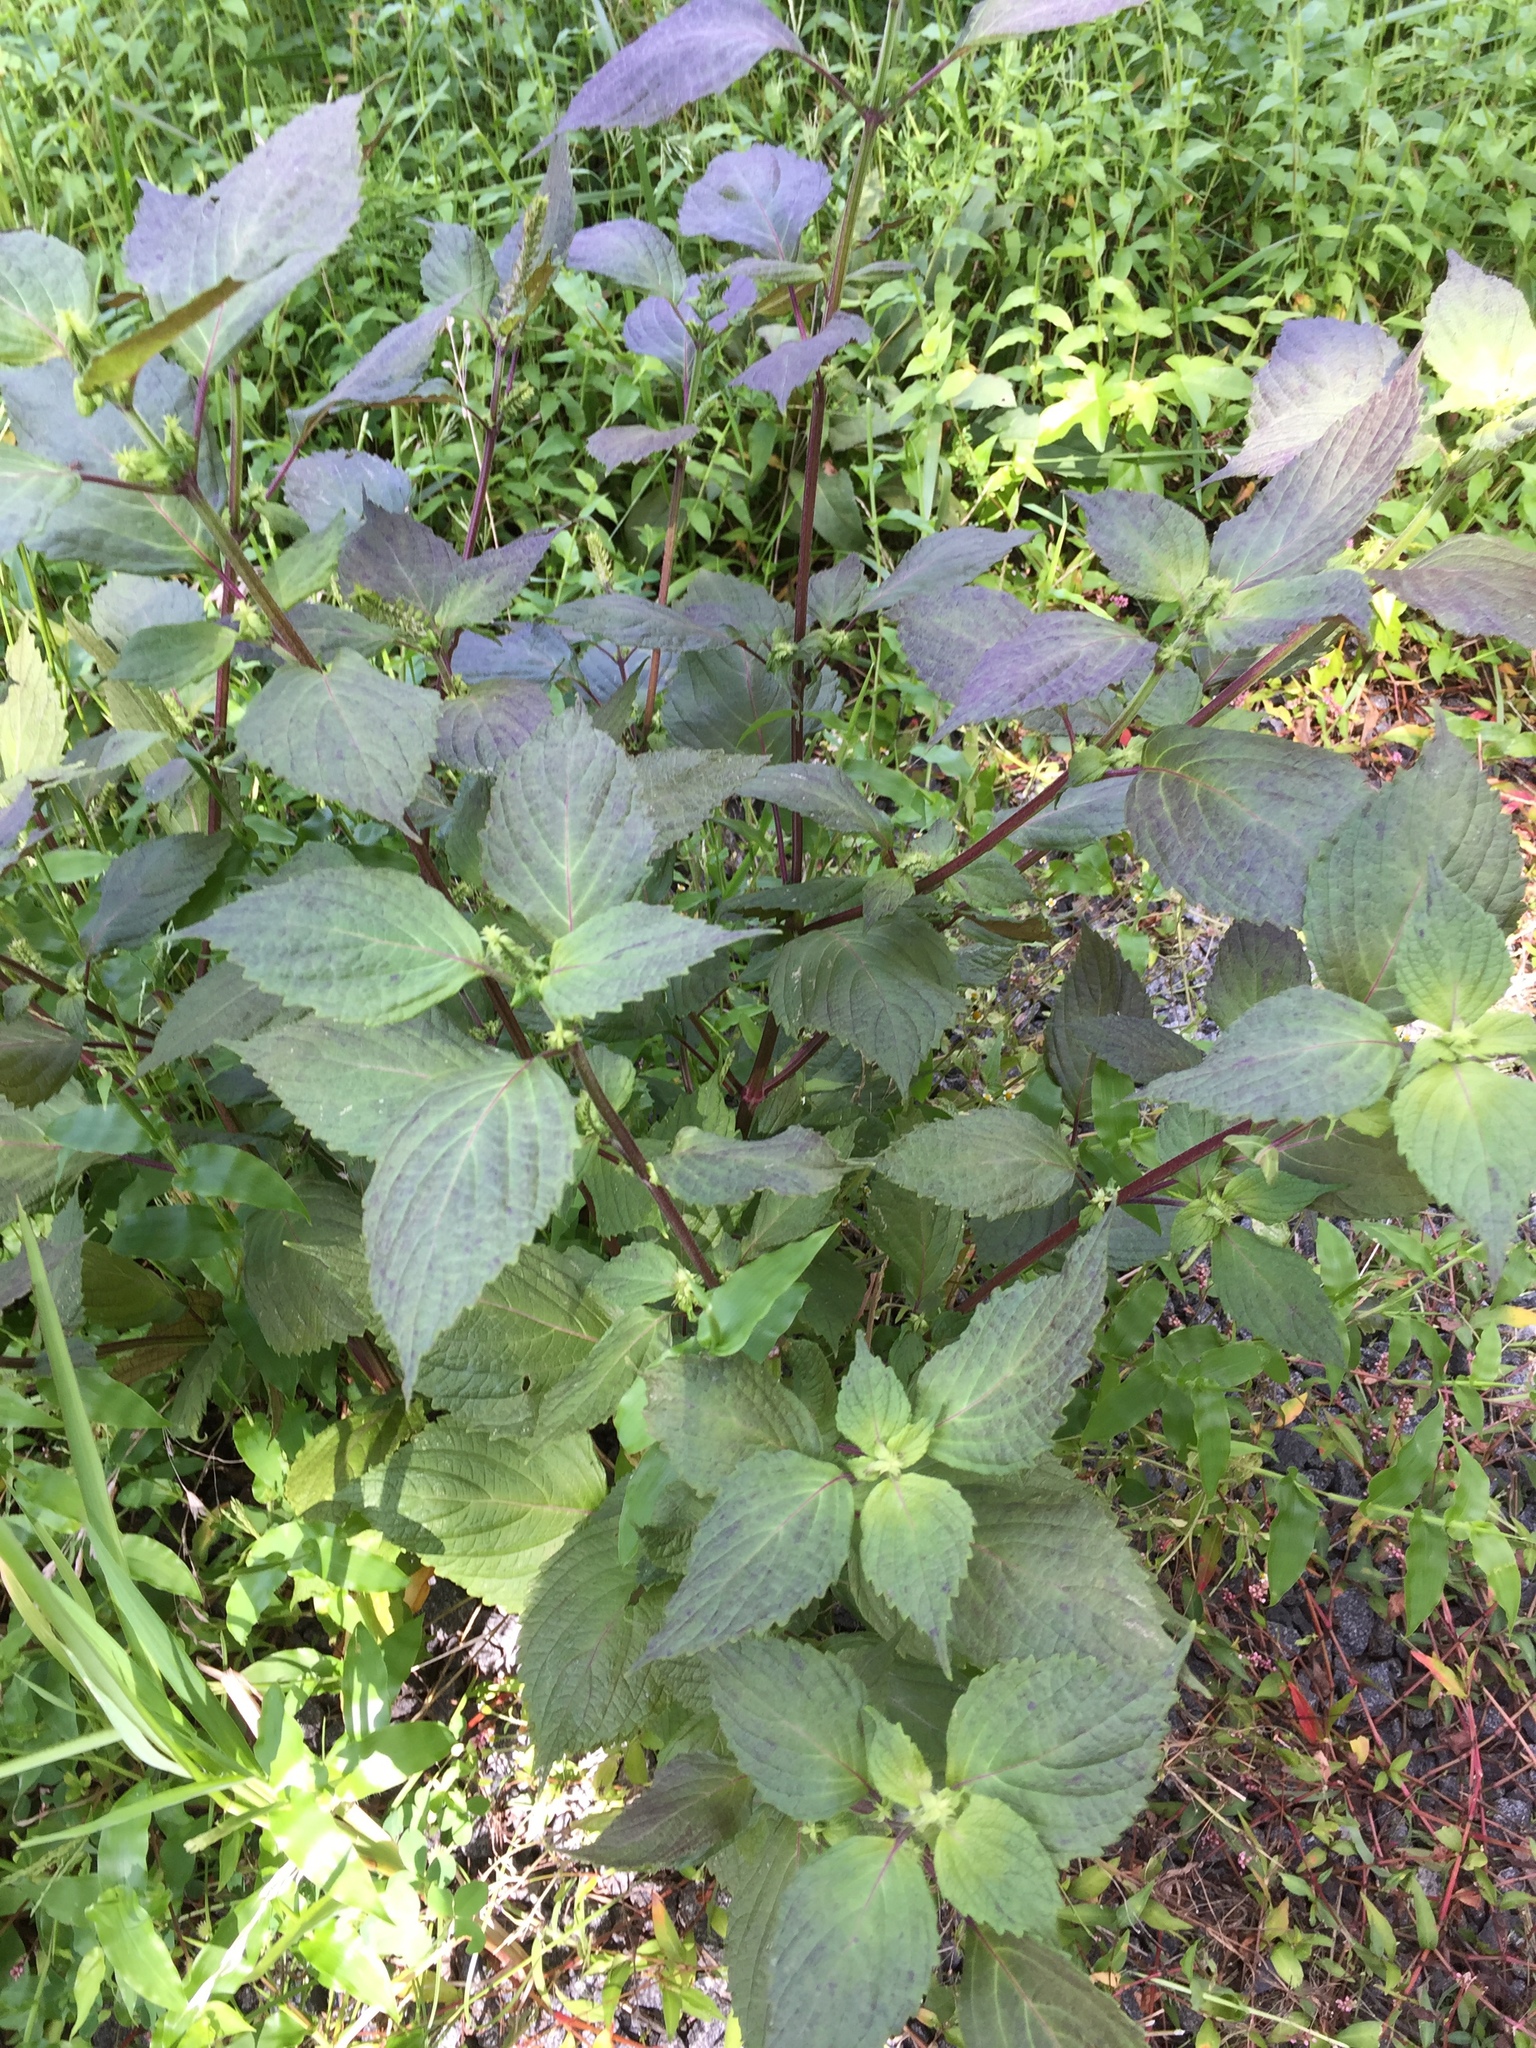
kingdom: Plantae
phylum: Tracheophyta
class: Magnoliopsida
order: Lamiales
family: Lamiaceae
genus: Perilla
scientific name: Perilla frutescens
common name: Perilla
